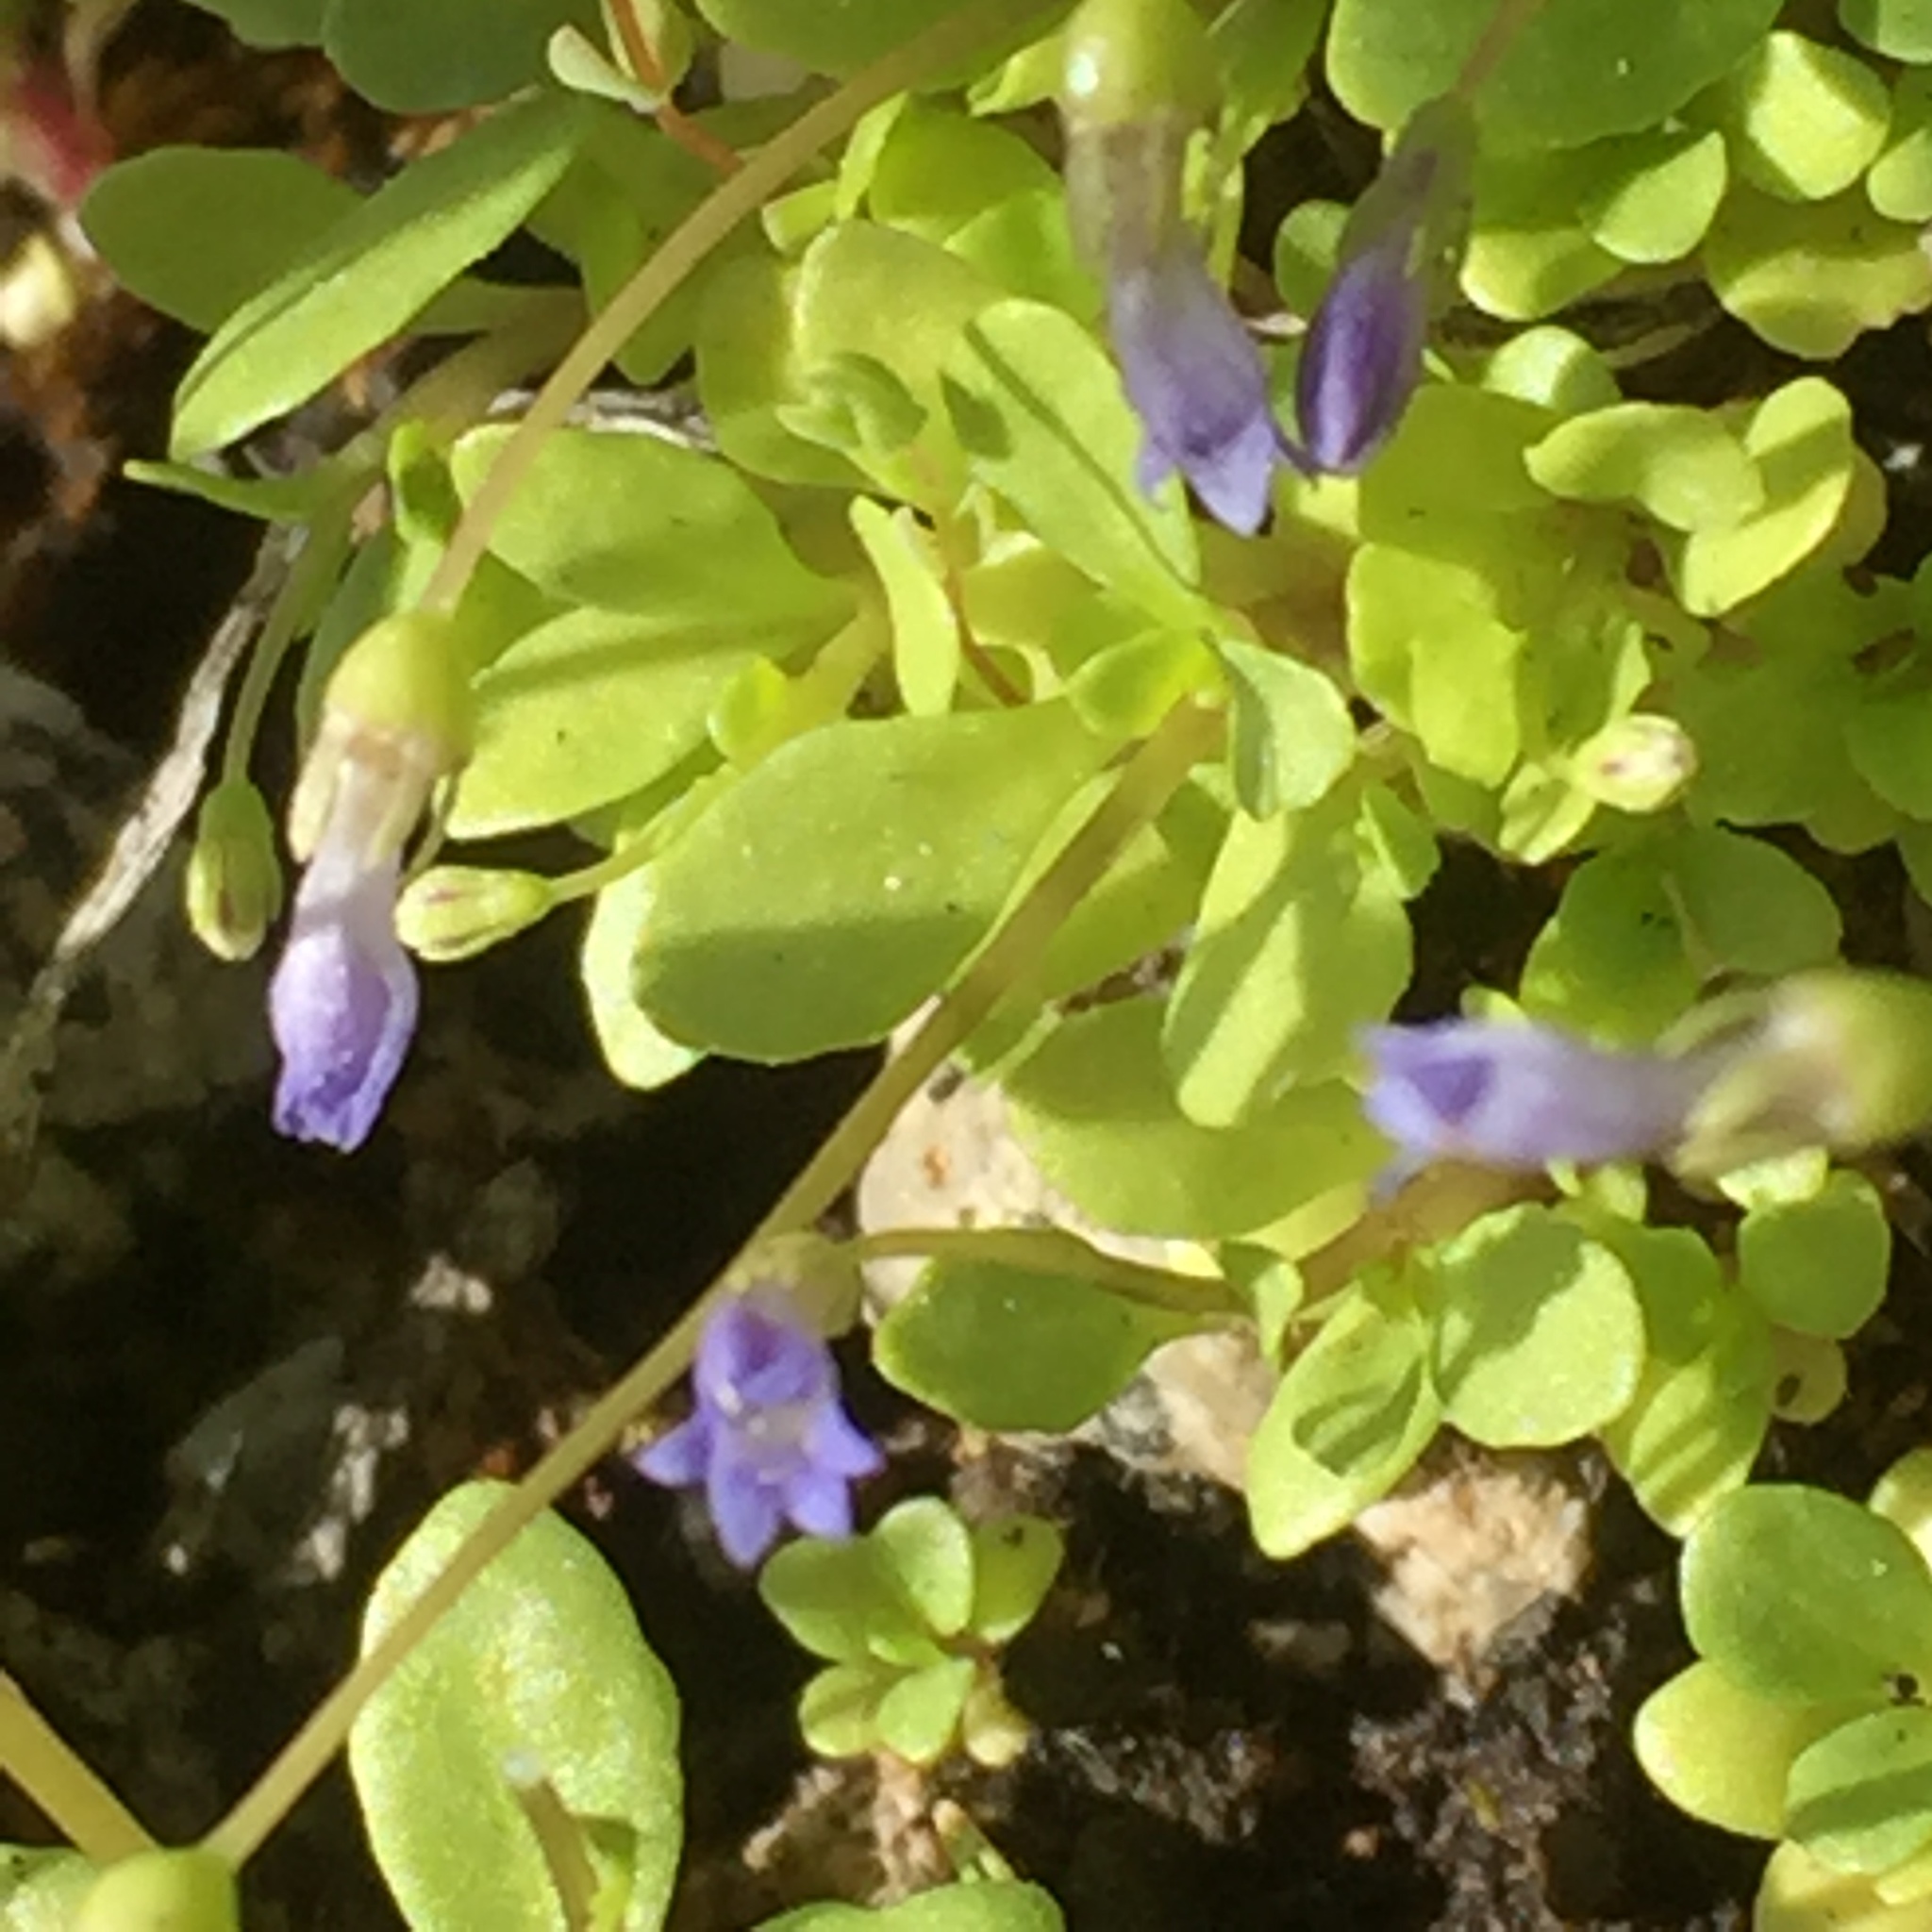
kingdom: Plantae
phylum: Tracheophyta
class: Magnoliopsida
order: Asterales
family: Campanulaceae
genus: Solenopsis
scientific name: Solenopsis laurentia
